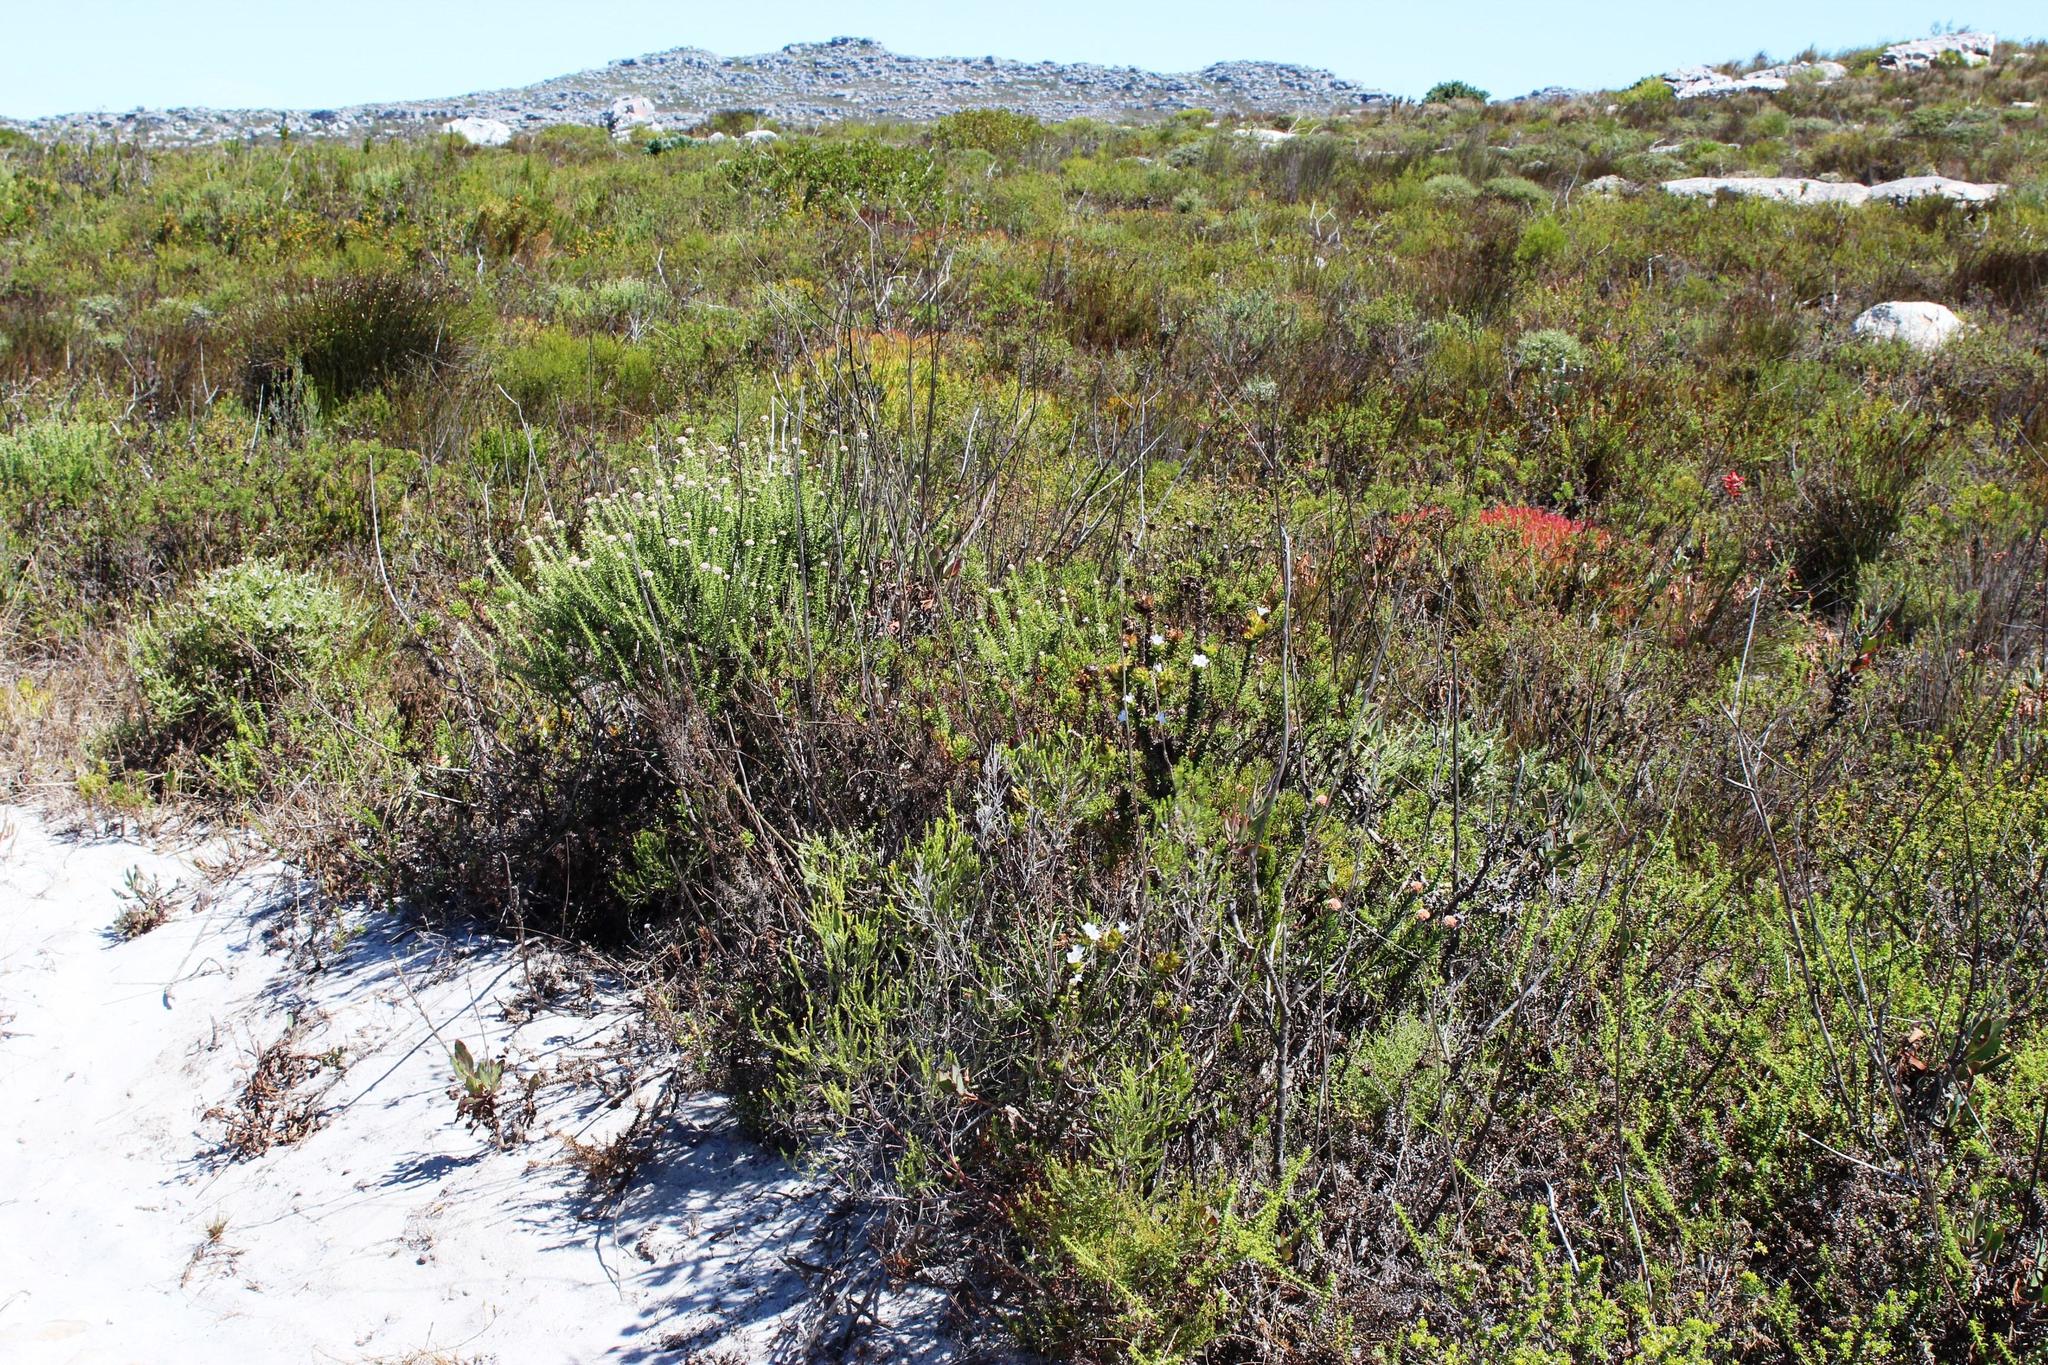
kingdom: Plantae
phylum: Tracheophyta
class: Magnoliopsida
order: Asterales
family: Campanulaceae
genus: Roella
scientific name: Roella amplexicaulis
